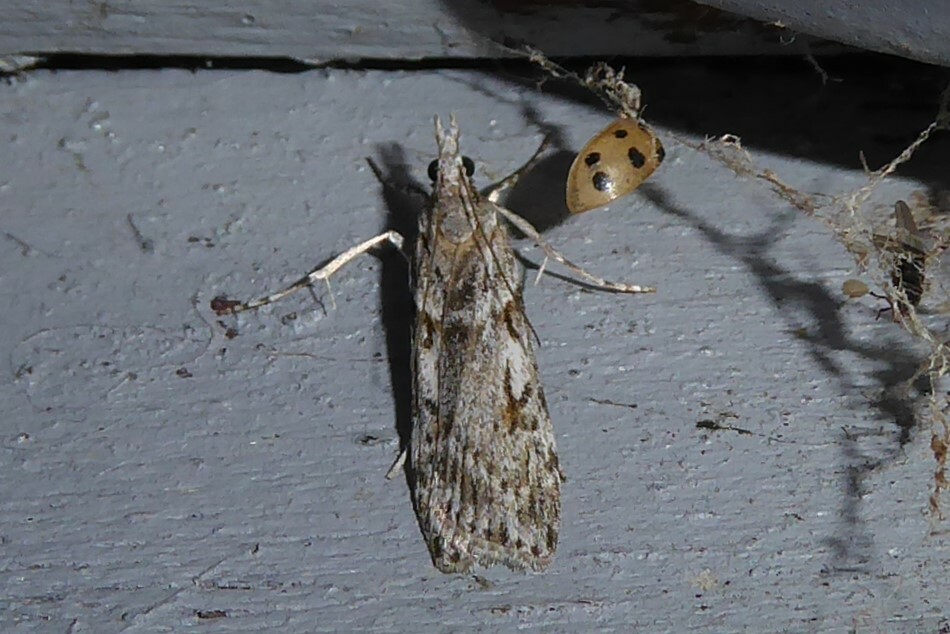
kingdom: Animalia
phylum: Arthropoda
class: Insecta
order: Lepidoptera
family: Crambidae
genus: Scoparia
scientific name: Scoparia halopis
